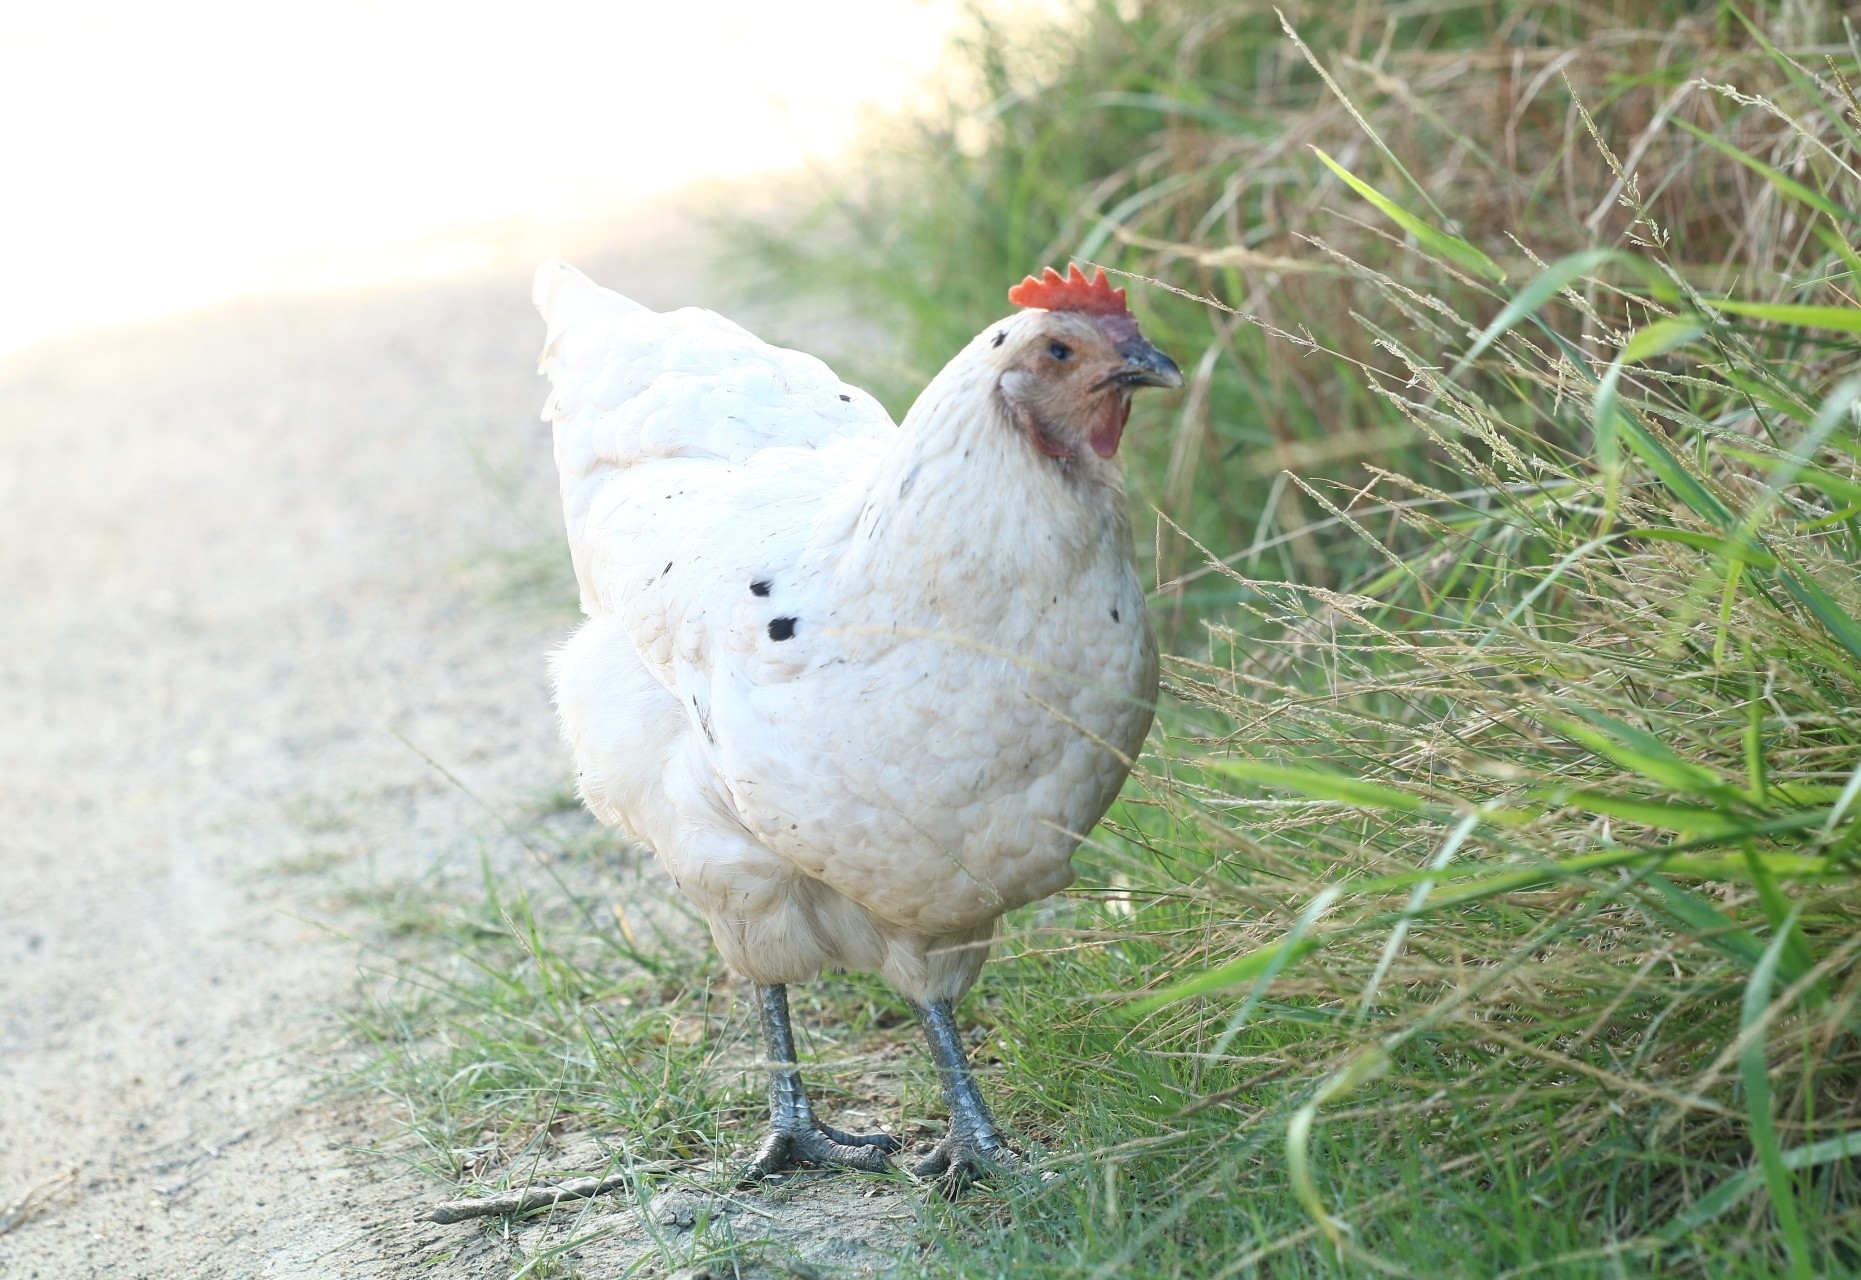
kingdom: Animalia
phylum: Chordata
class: Aves
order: Galliformes
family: Phasianidae
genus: Gallus
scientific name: Gallus gallus
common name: Red junglefowl
